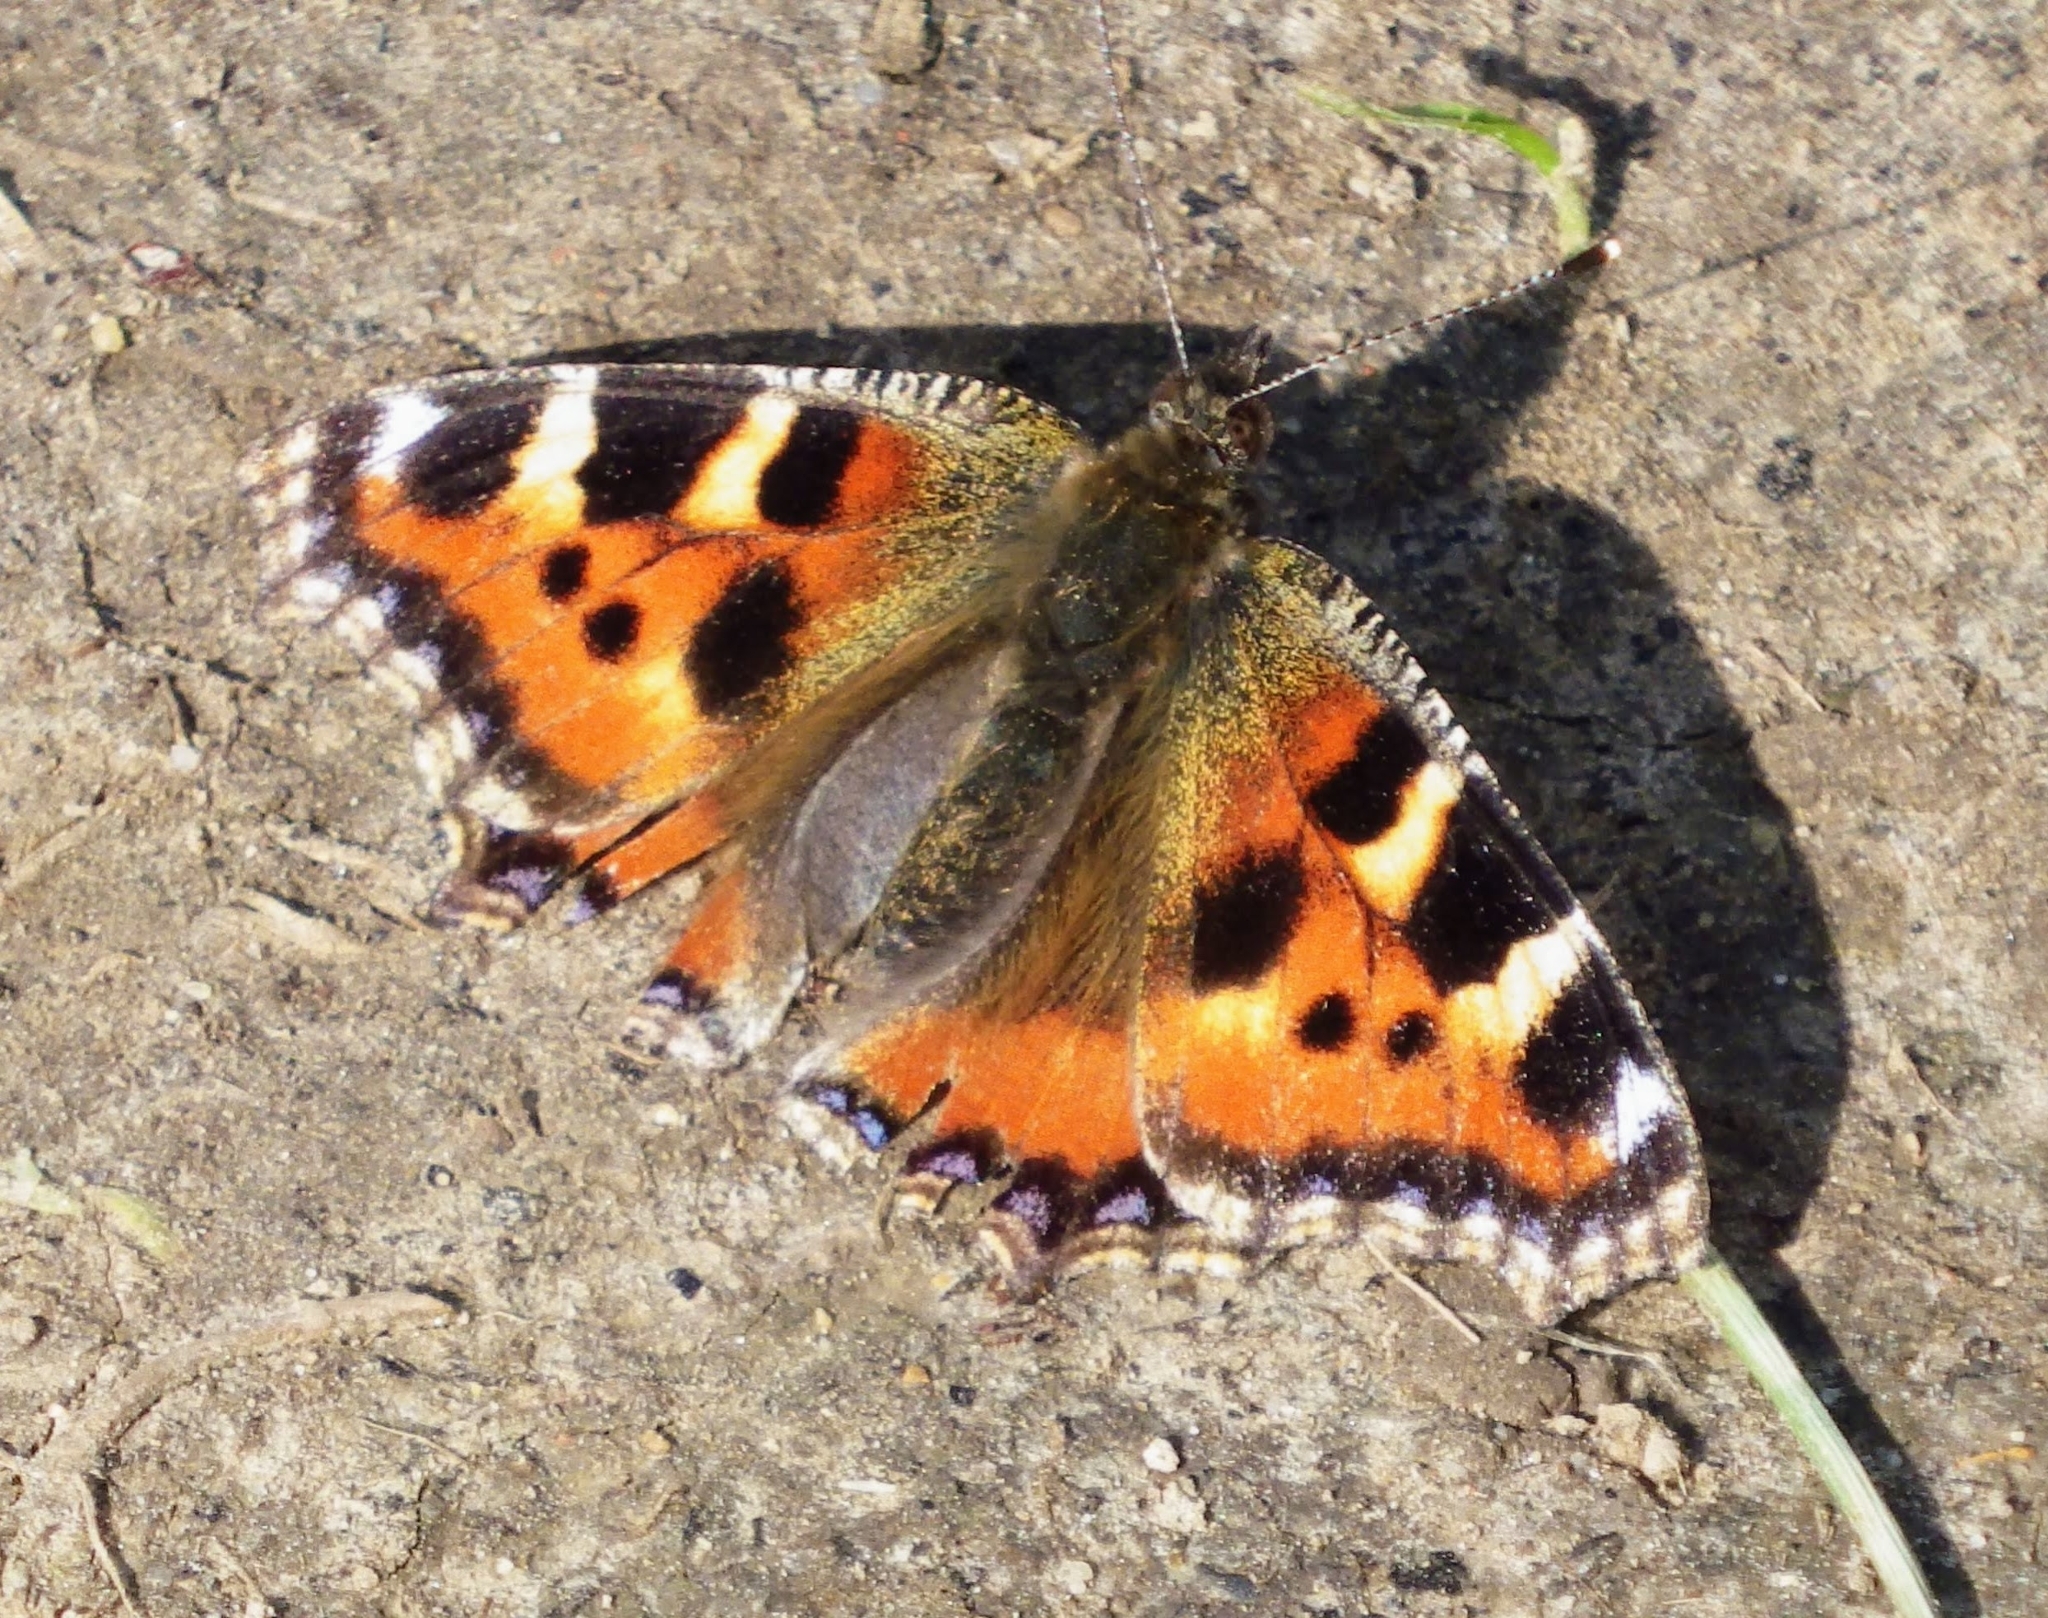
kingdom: Animalia
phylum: Arthropoda
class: Insecta
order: Lepidoptera
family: Nymphalidae
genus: Aglais
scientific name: Aglais urticae
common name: Small tortoiseshell
